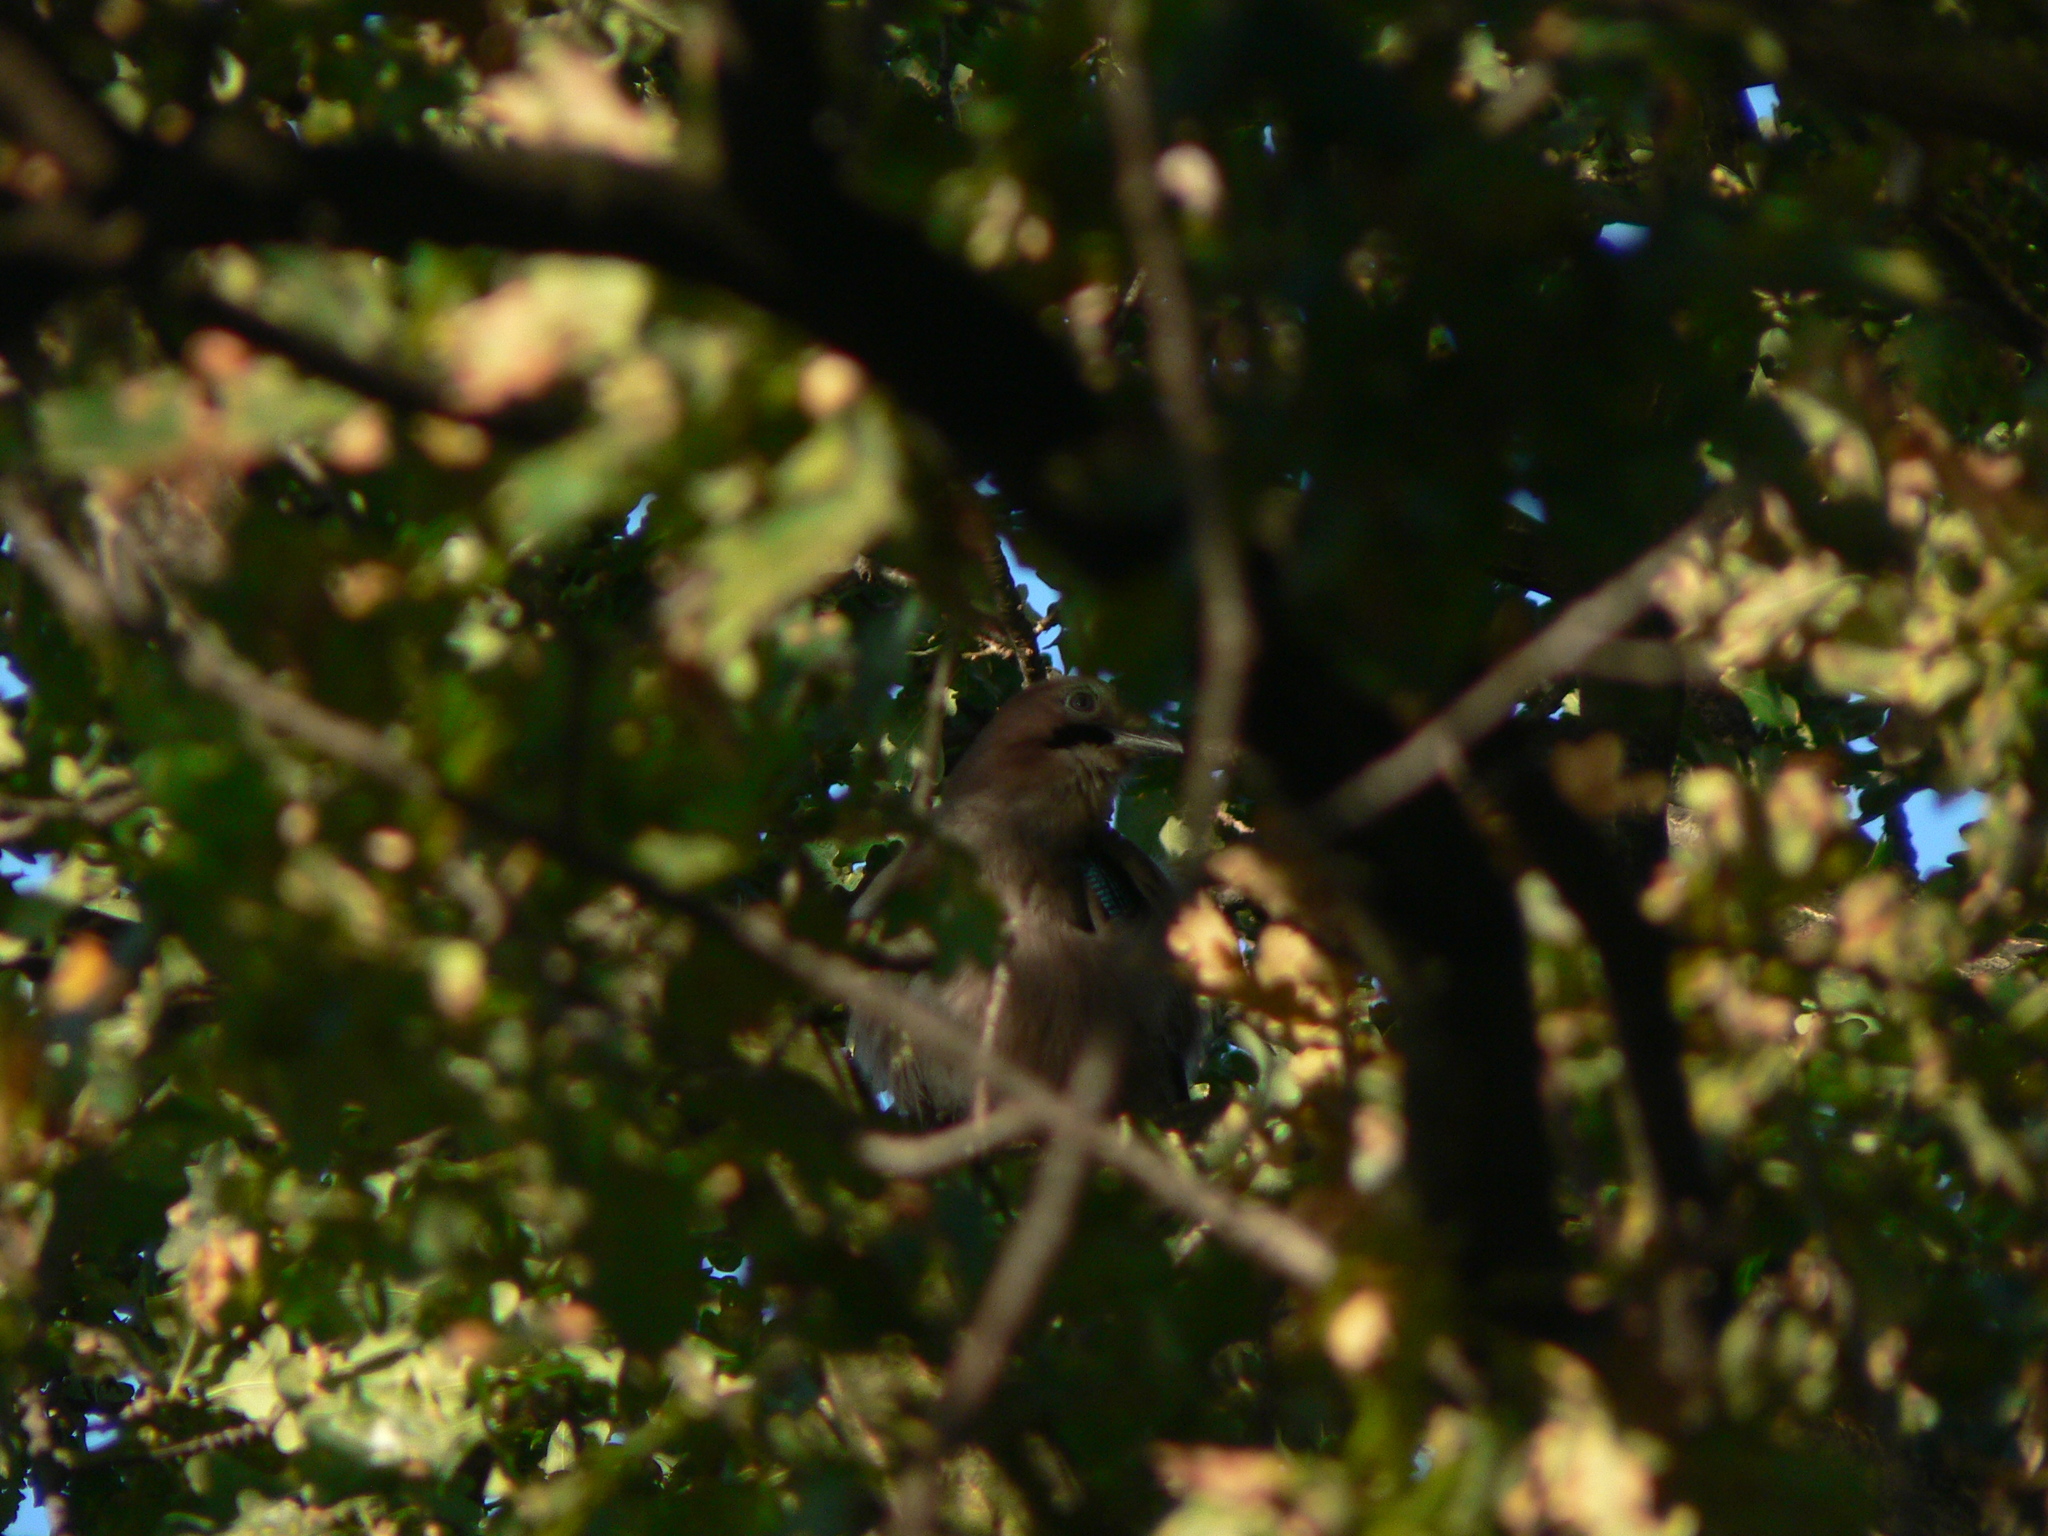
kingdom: Animalia
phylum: Chordata
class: Aves
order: Passeriformes
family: Corvidae
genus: Garrulus
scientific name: Garrulus glandarius
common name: Eurasian jay
